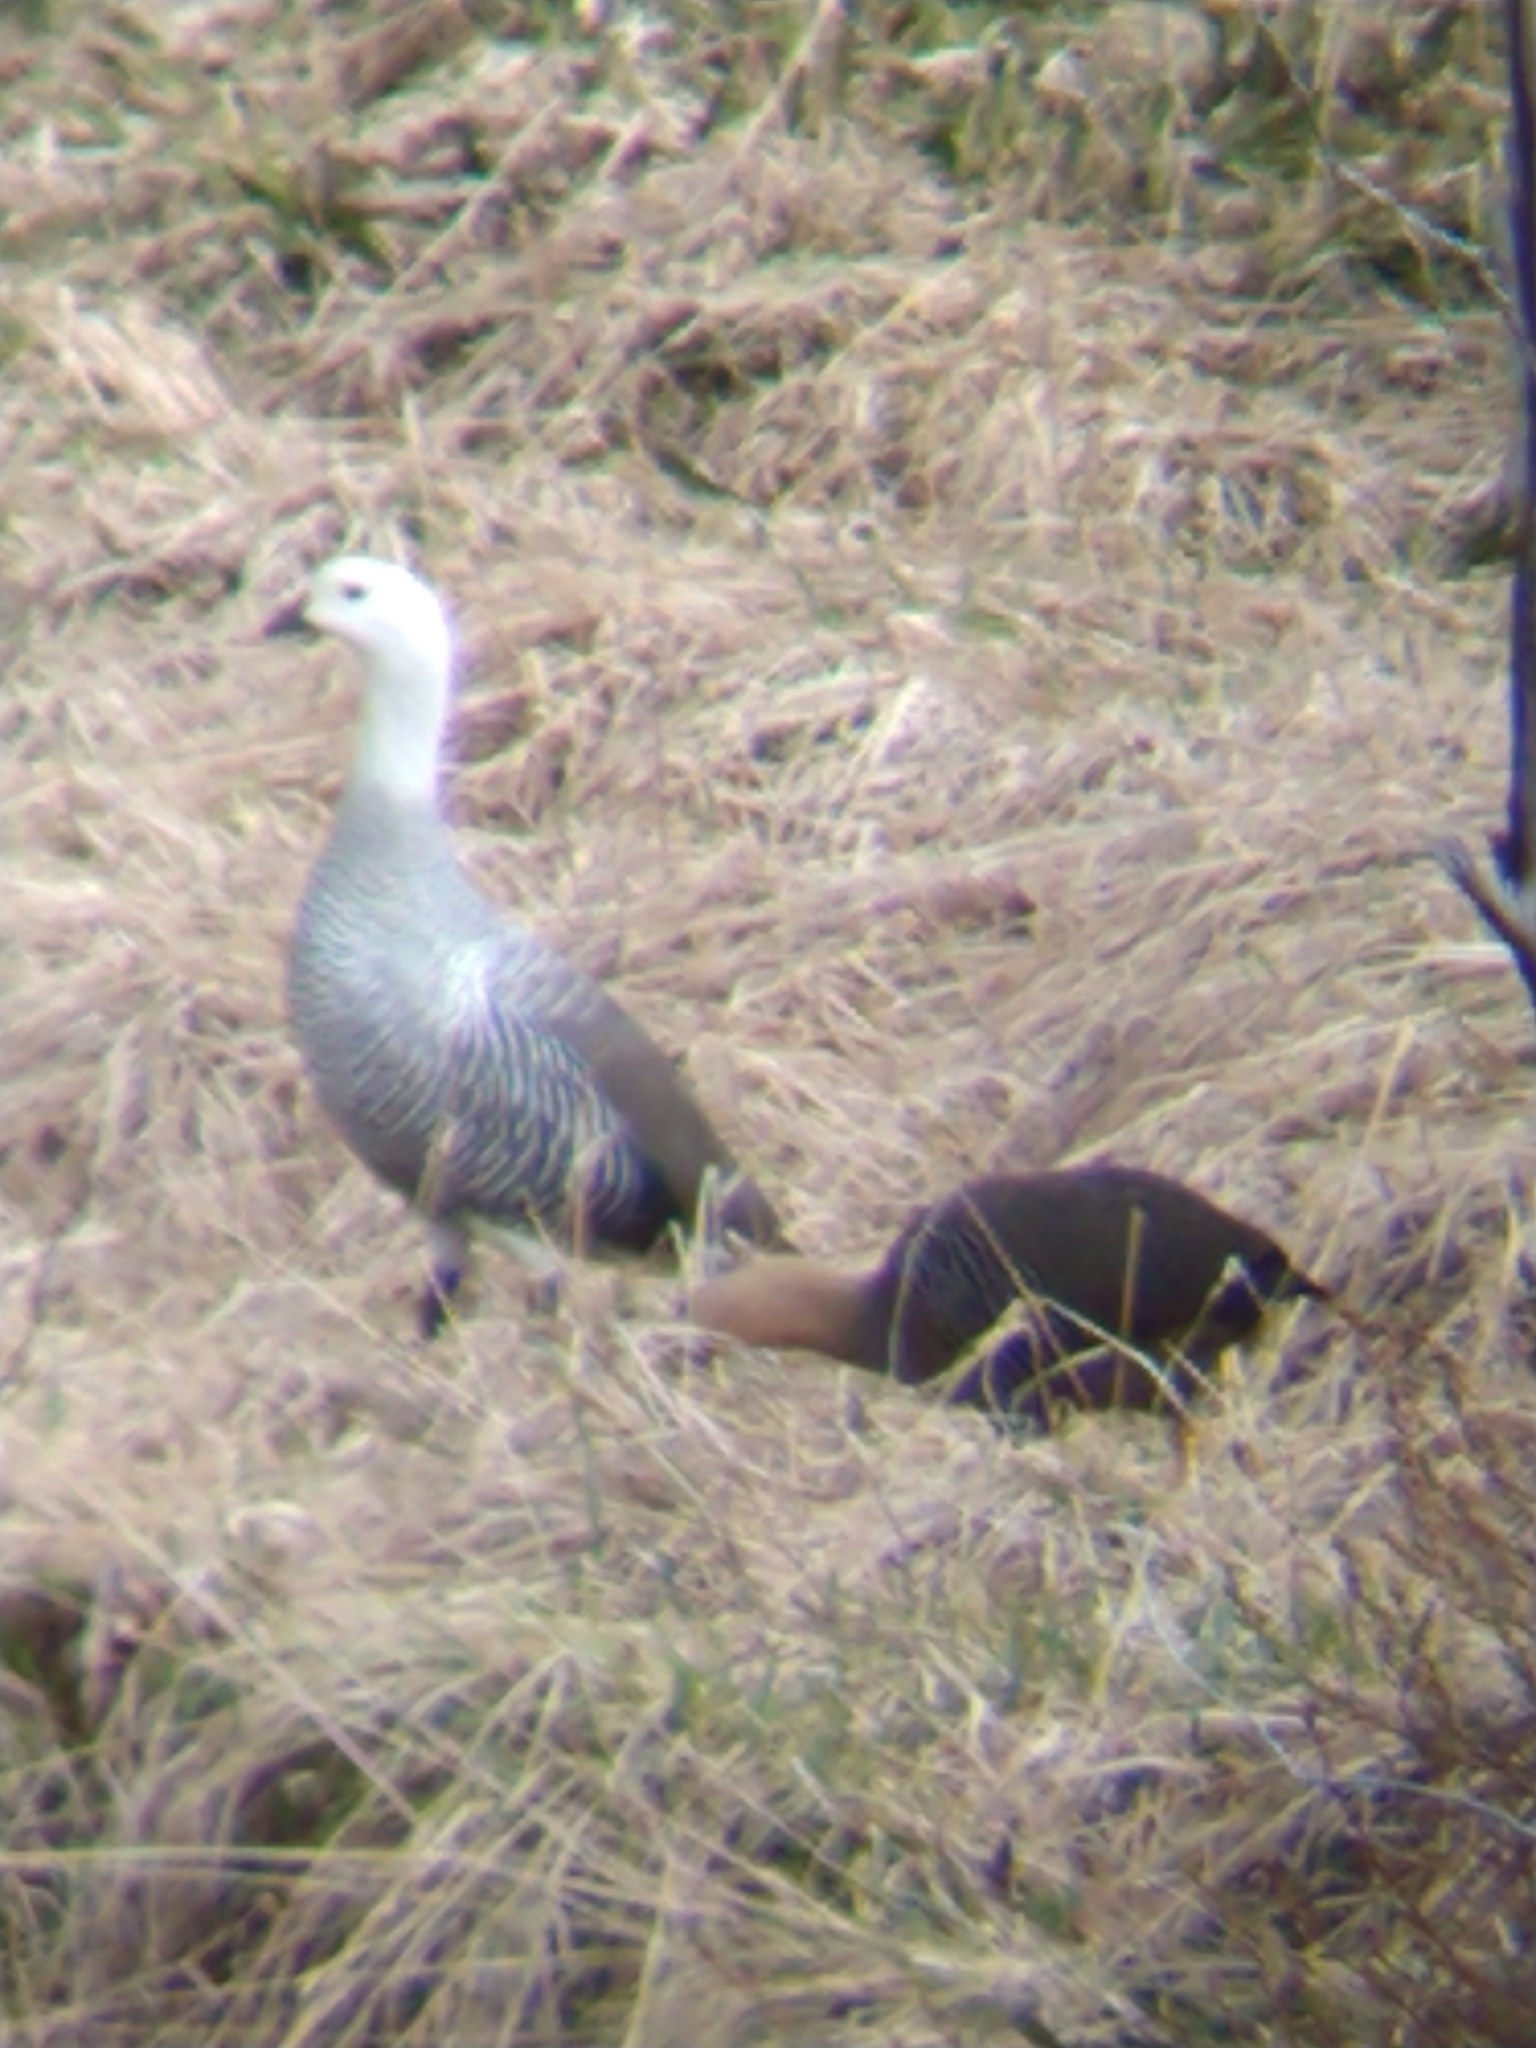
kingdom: Animalia
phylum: Chordata
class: Aves
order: Anseriformes
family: Anatidae
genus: Chloephaga
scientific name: Chloephaga picta
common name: Upland goose
